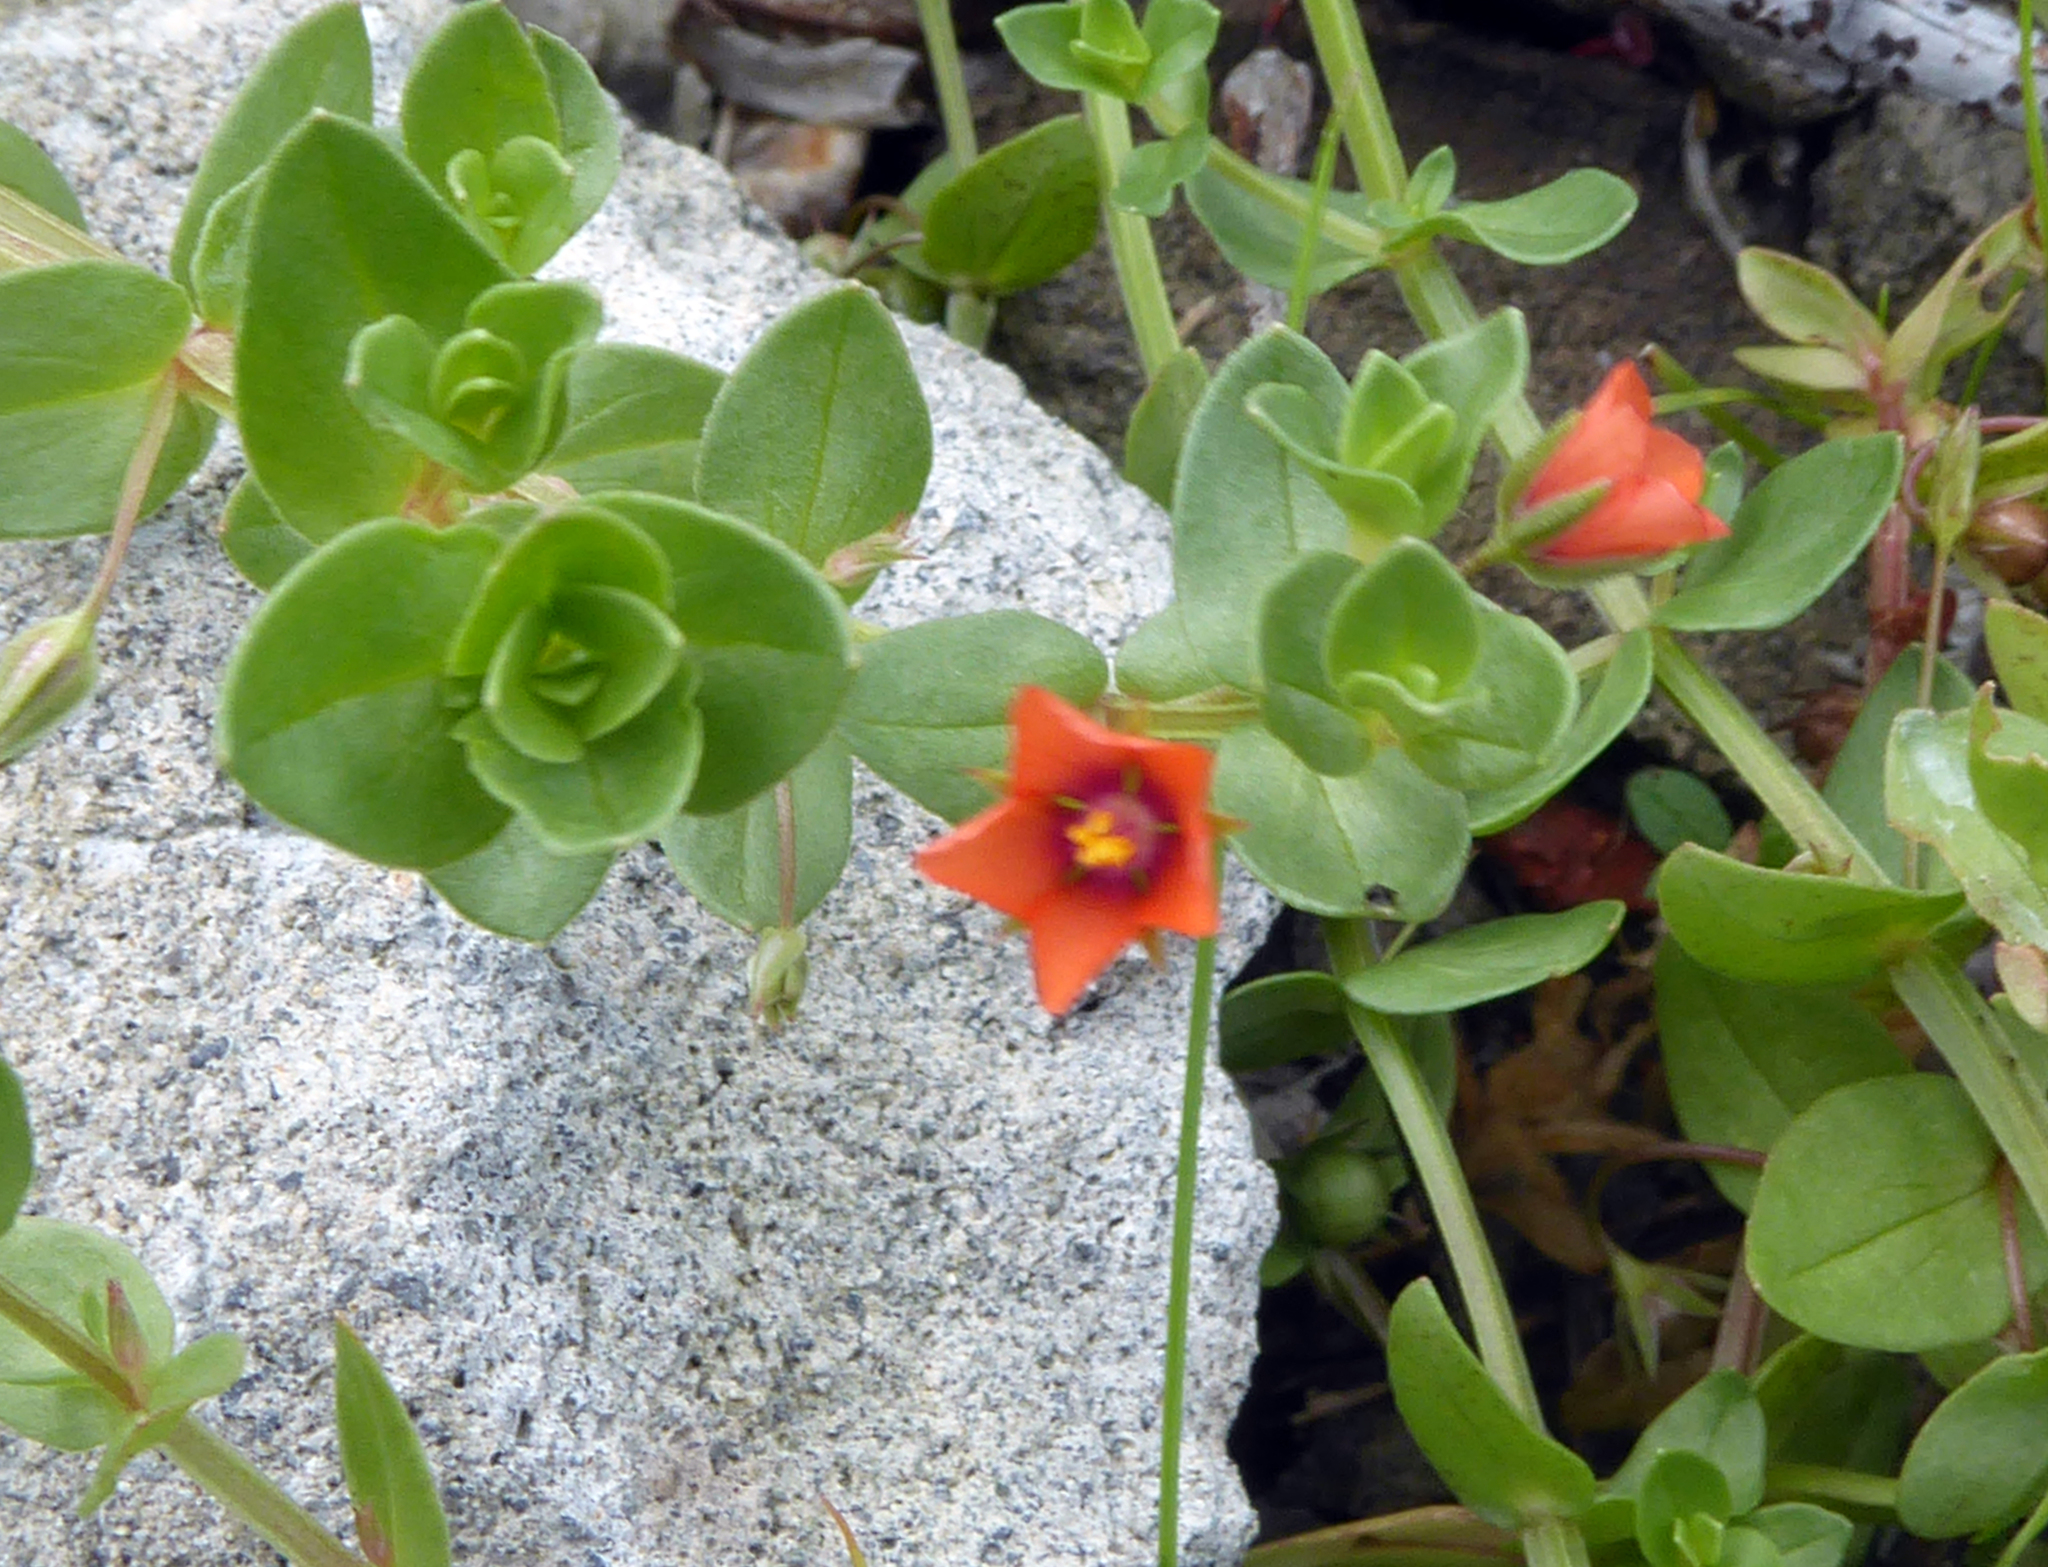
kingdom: Plantae
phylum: Tracheophyta
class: Magnoliopsida
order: Ericales
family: Primulaceae
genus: Lysimachia
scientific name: Lysimachia arvensis
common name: Scarlet pimpernel
